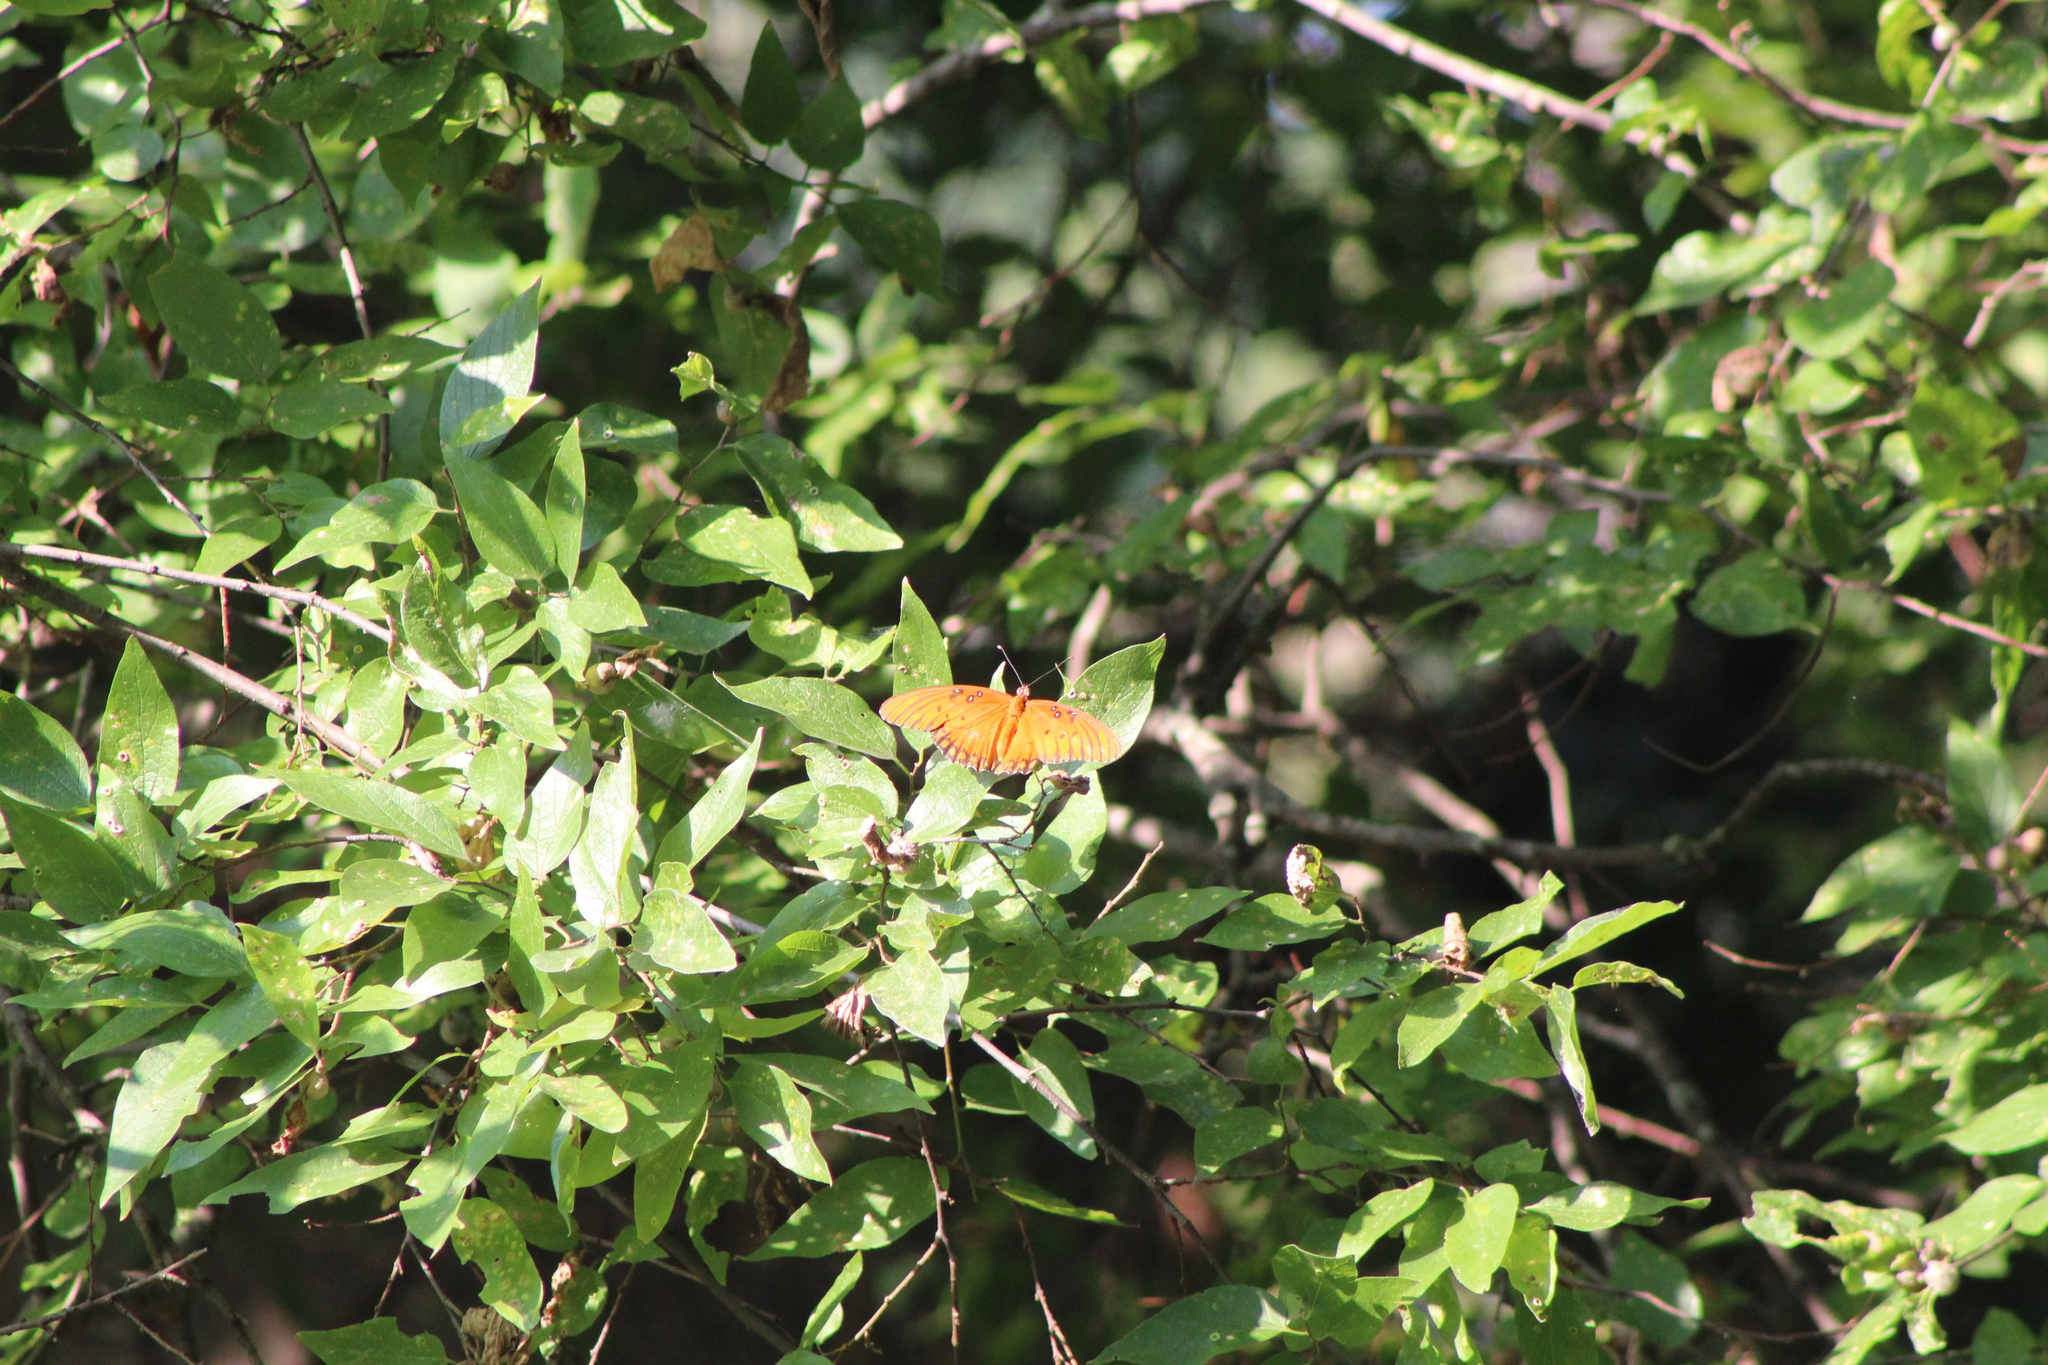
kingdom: Animalia
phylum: Arthropoda
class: Insecta
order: Lepidoptera
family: Nymphalidae
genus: Dione
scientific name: Dione vanillae
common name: Gulf fritillary
